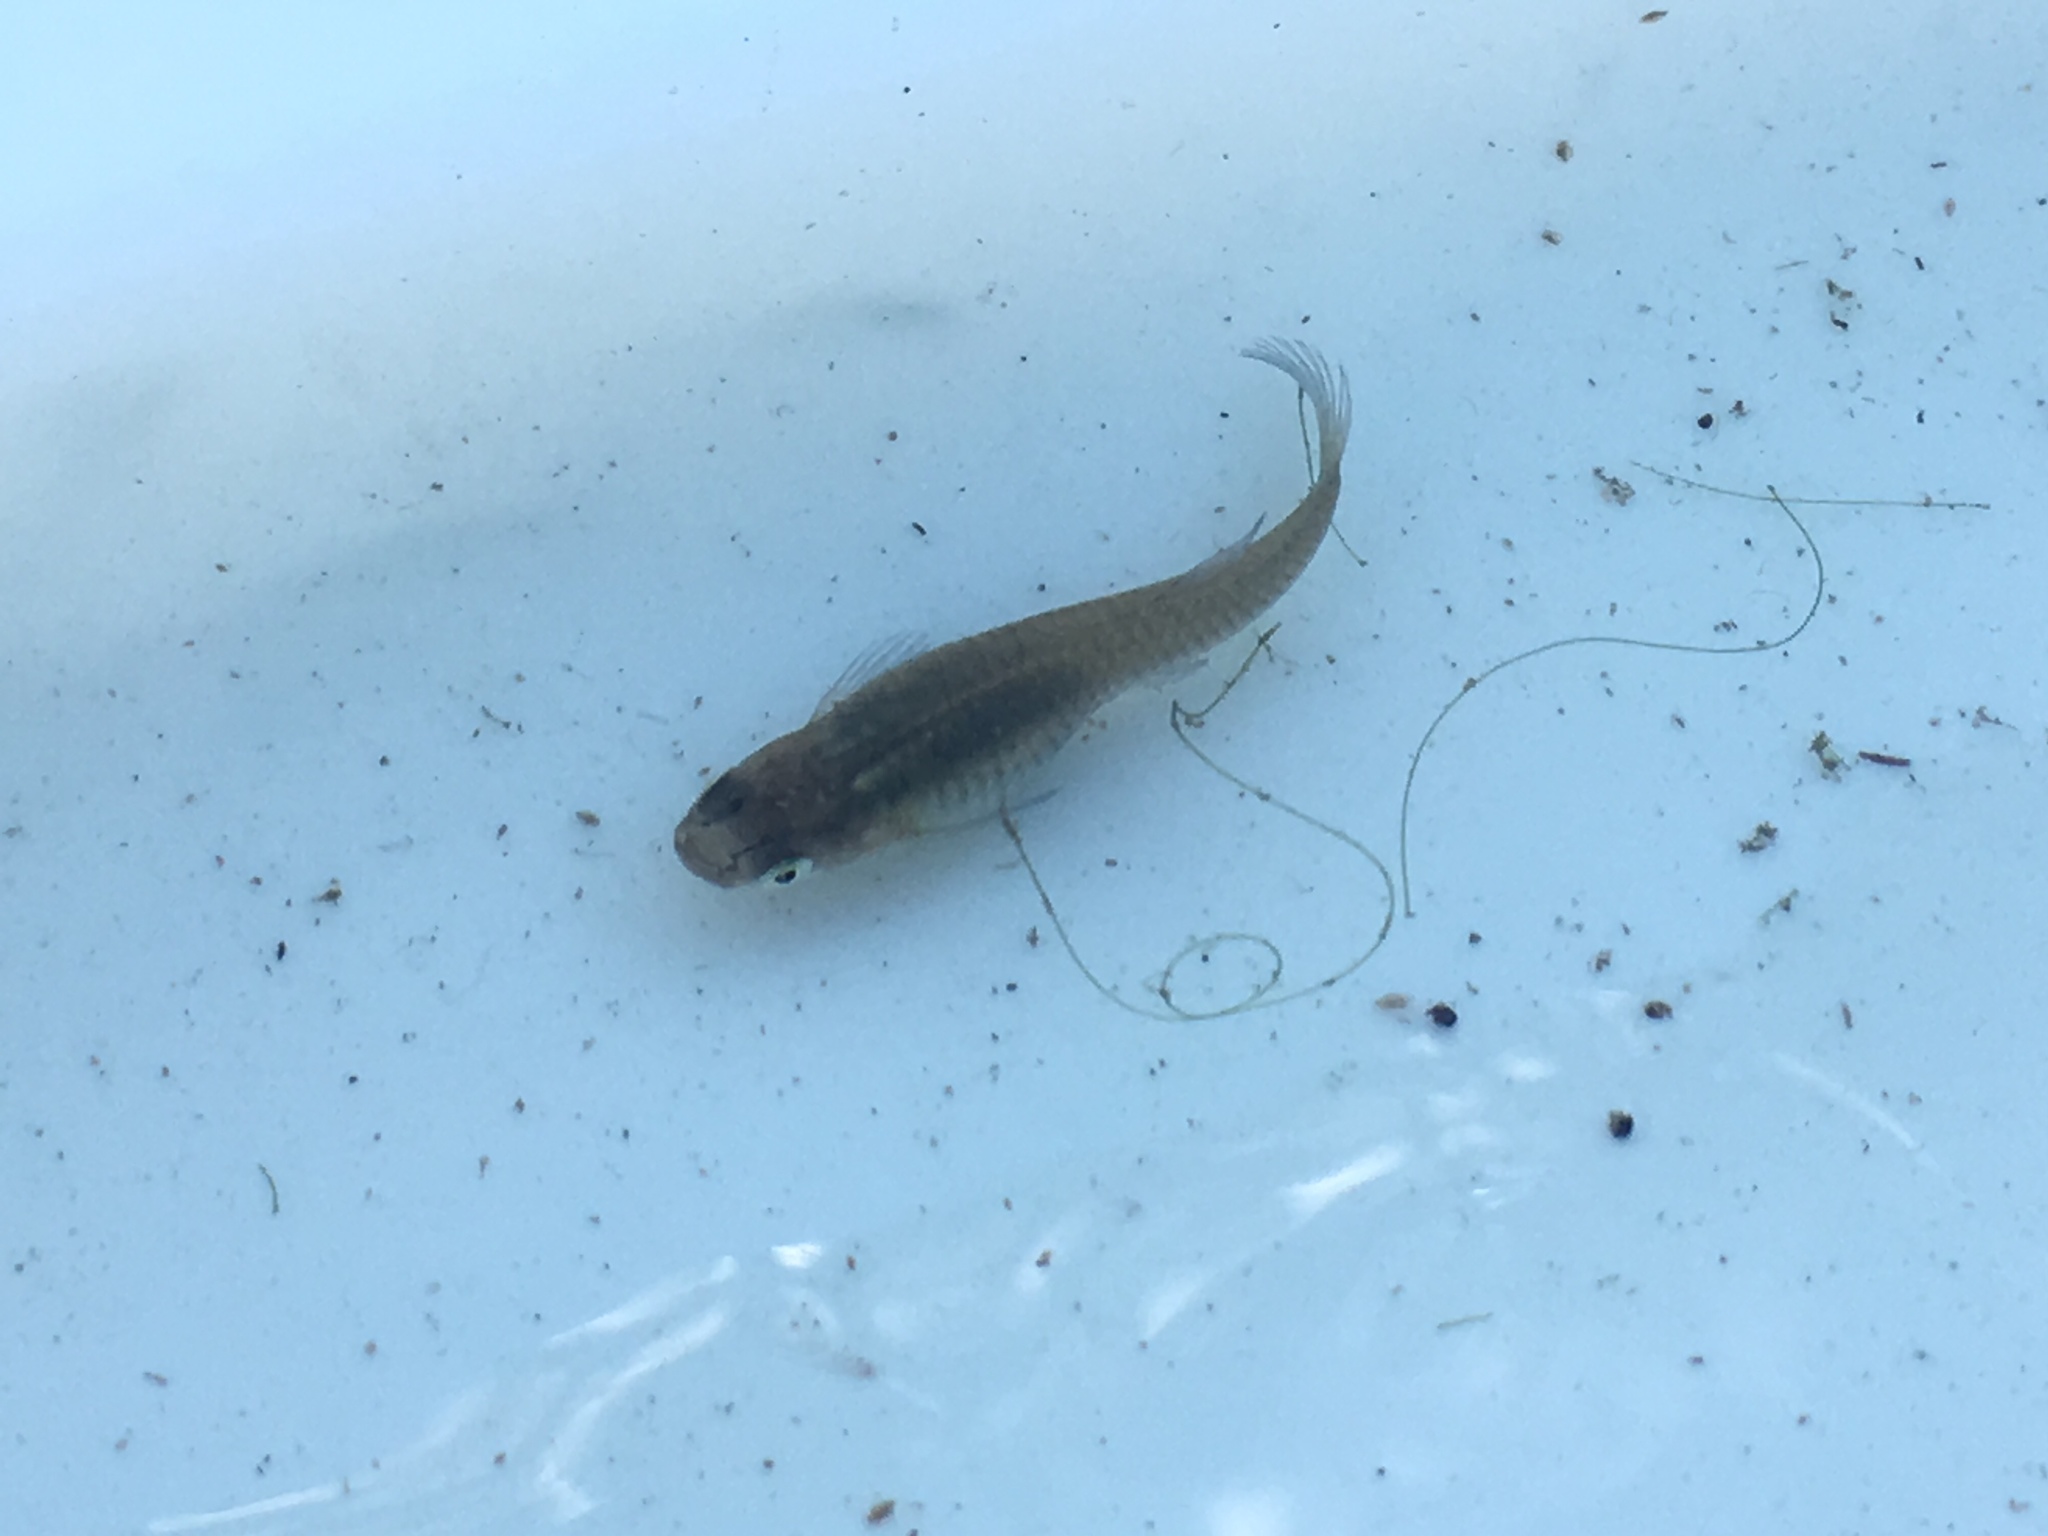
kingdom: Animalia
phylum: Chordata
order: Cyprinodontiformes
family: Poeciliidae
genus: Gambusia
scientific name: Gambusia affinis
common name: Mosquitofish
